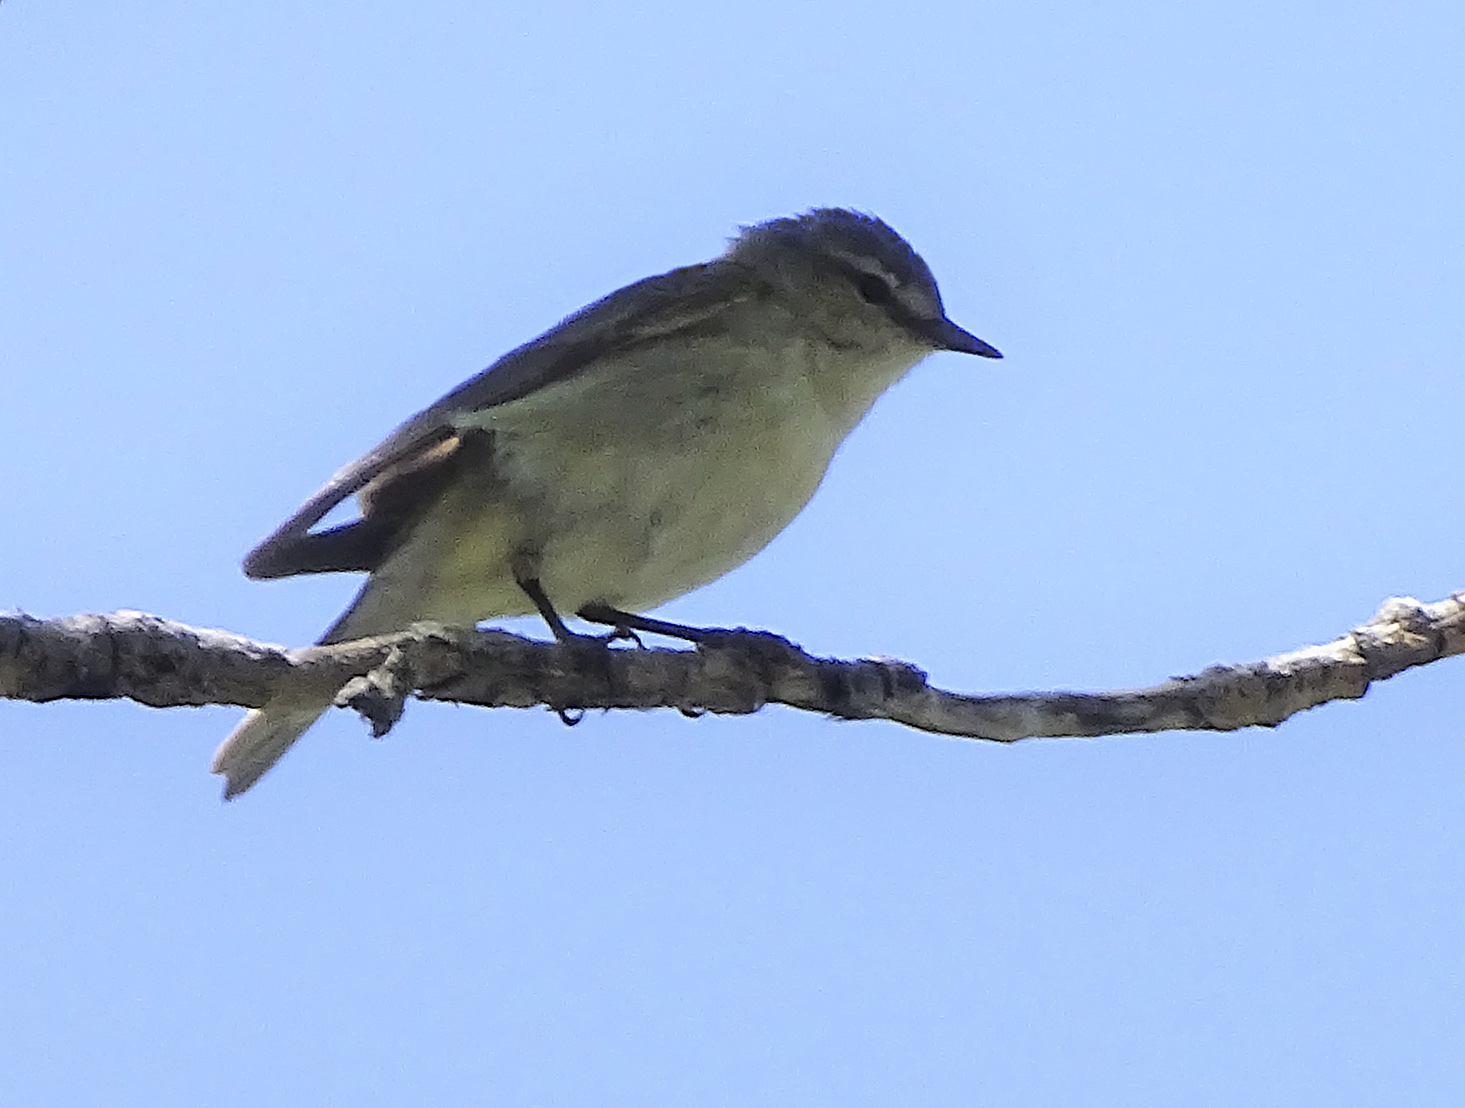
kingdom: Animalia
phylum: Chordata
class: Aves
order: Passeriformes
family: Parulidae
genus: Leiothlypis
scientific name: Leiothlypis peregrina
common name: Tennessee warbler
